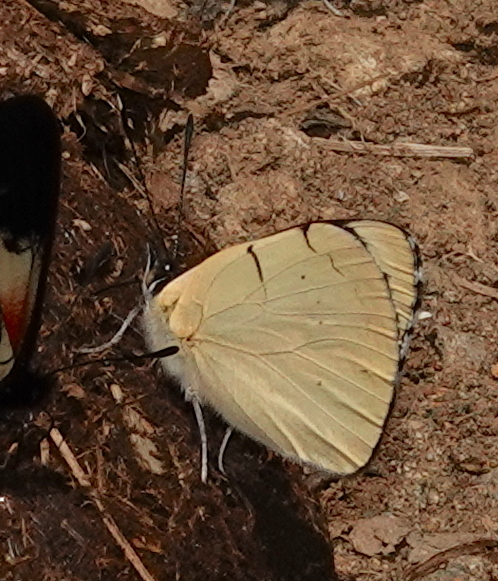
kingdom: Animalia
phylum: Arthropoda
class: Insecta
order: Lepidoptera
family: Nymphalidae
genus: Perisama
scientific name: Perisama tryphena
